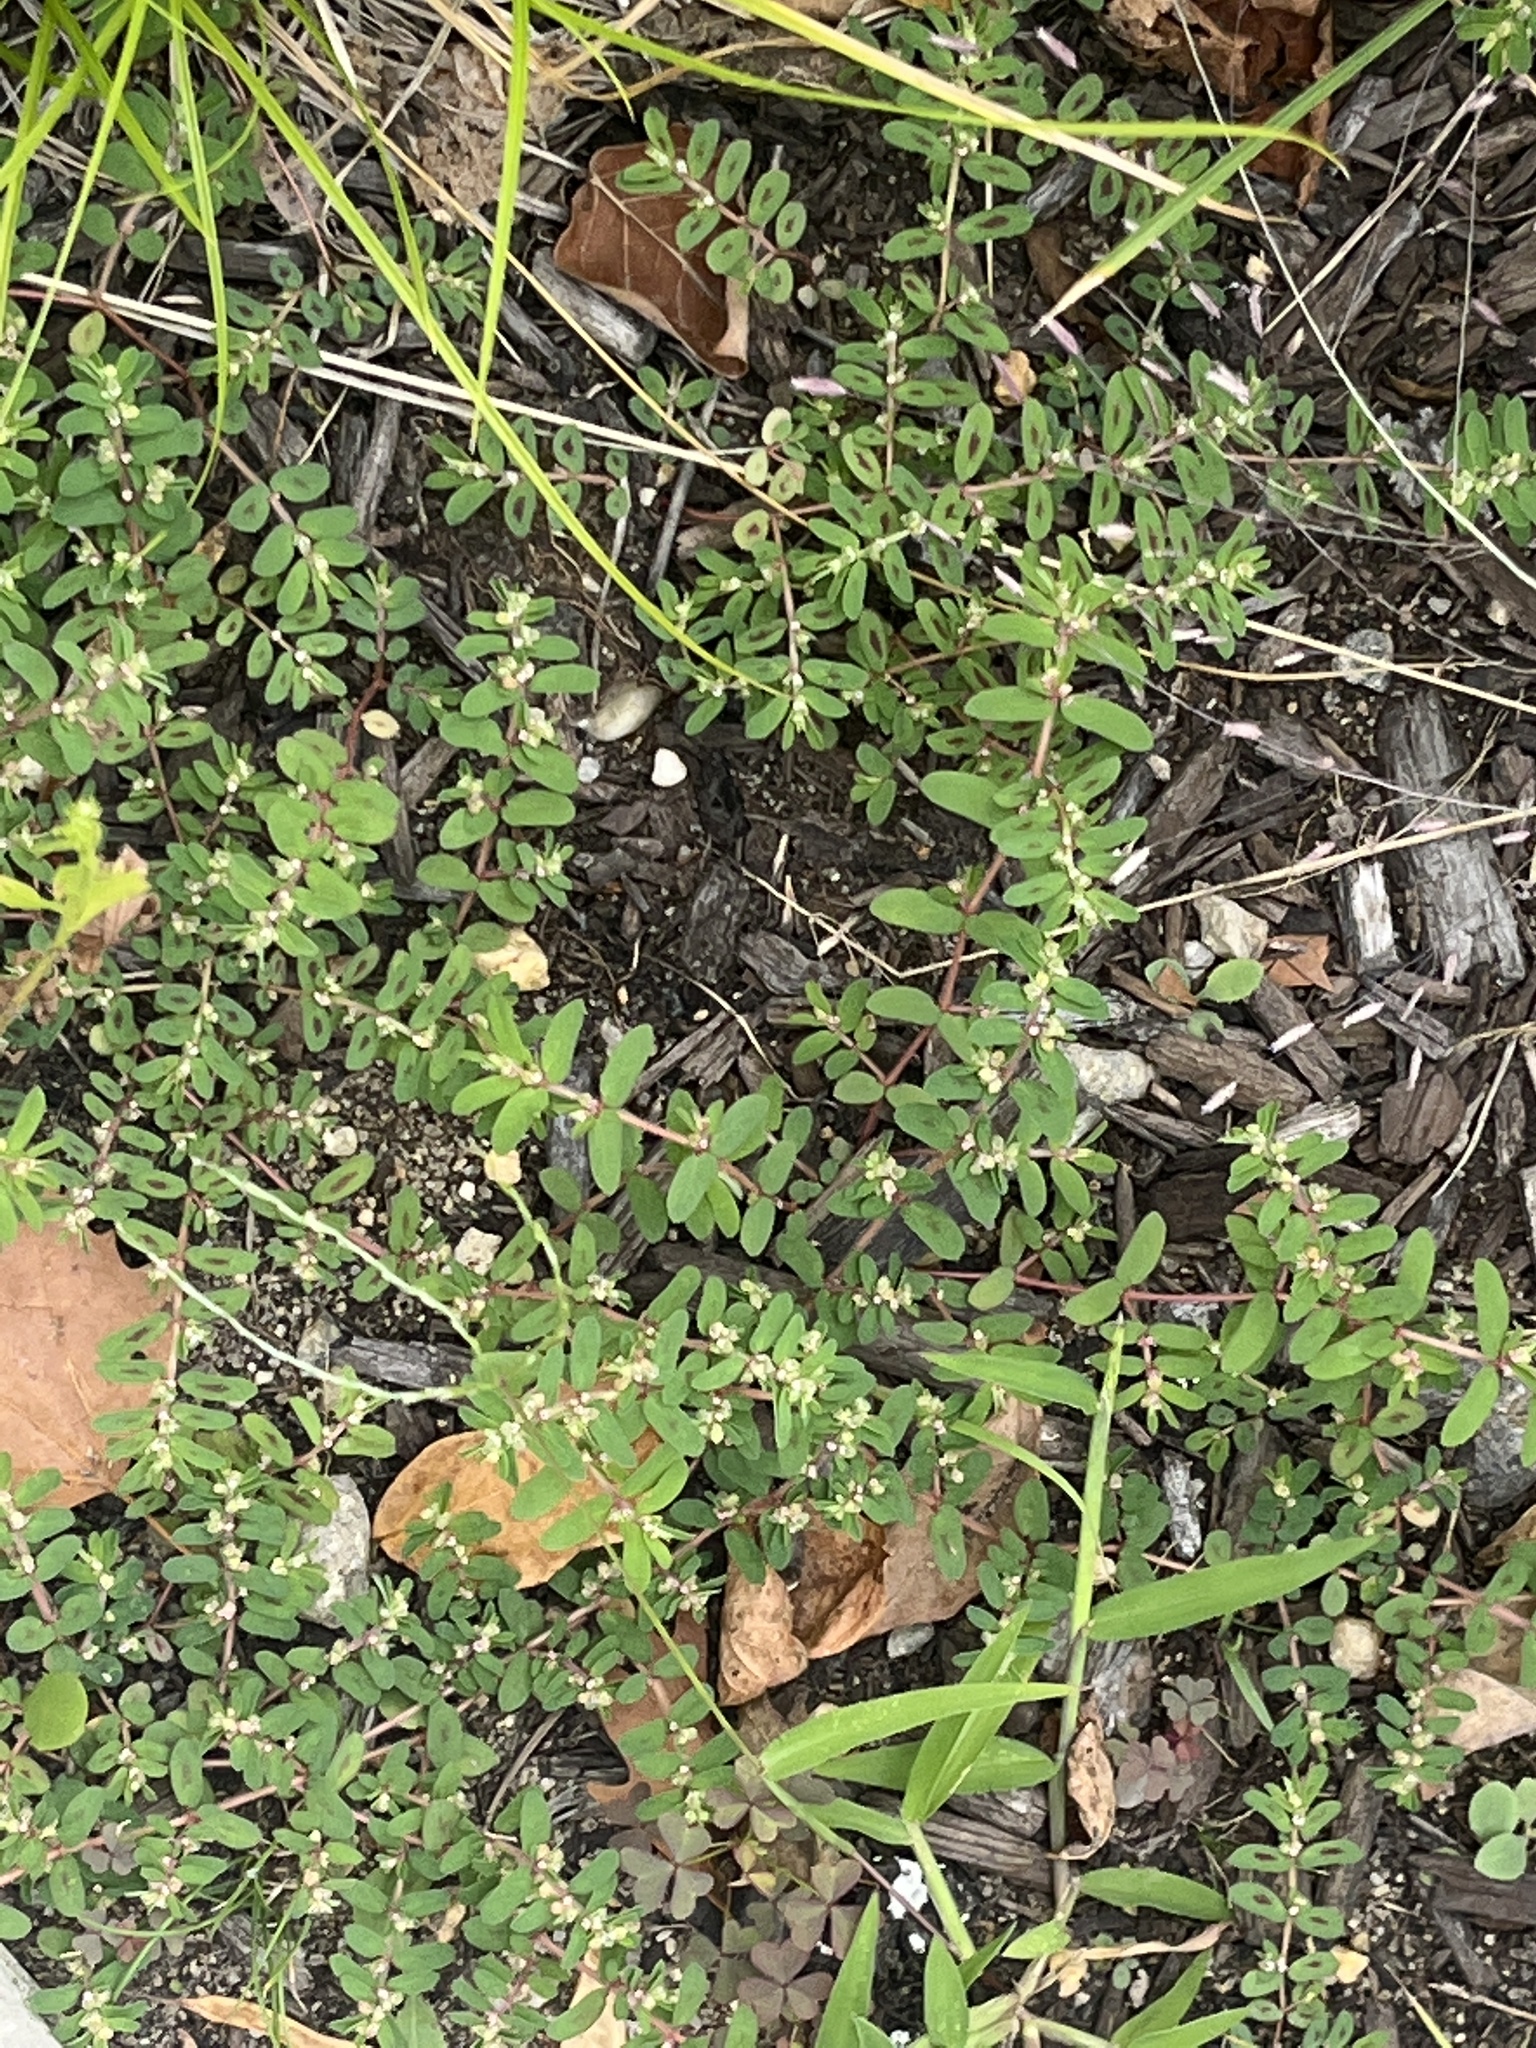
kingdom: Plantae
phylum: Tracheophyta
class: Magnoliopsida
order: Malpighiales
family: Euphorbiaceae
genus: Euphorbia
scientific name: Euphorbia maculata
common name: Spotted spurge
